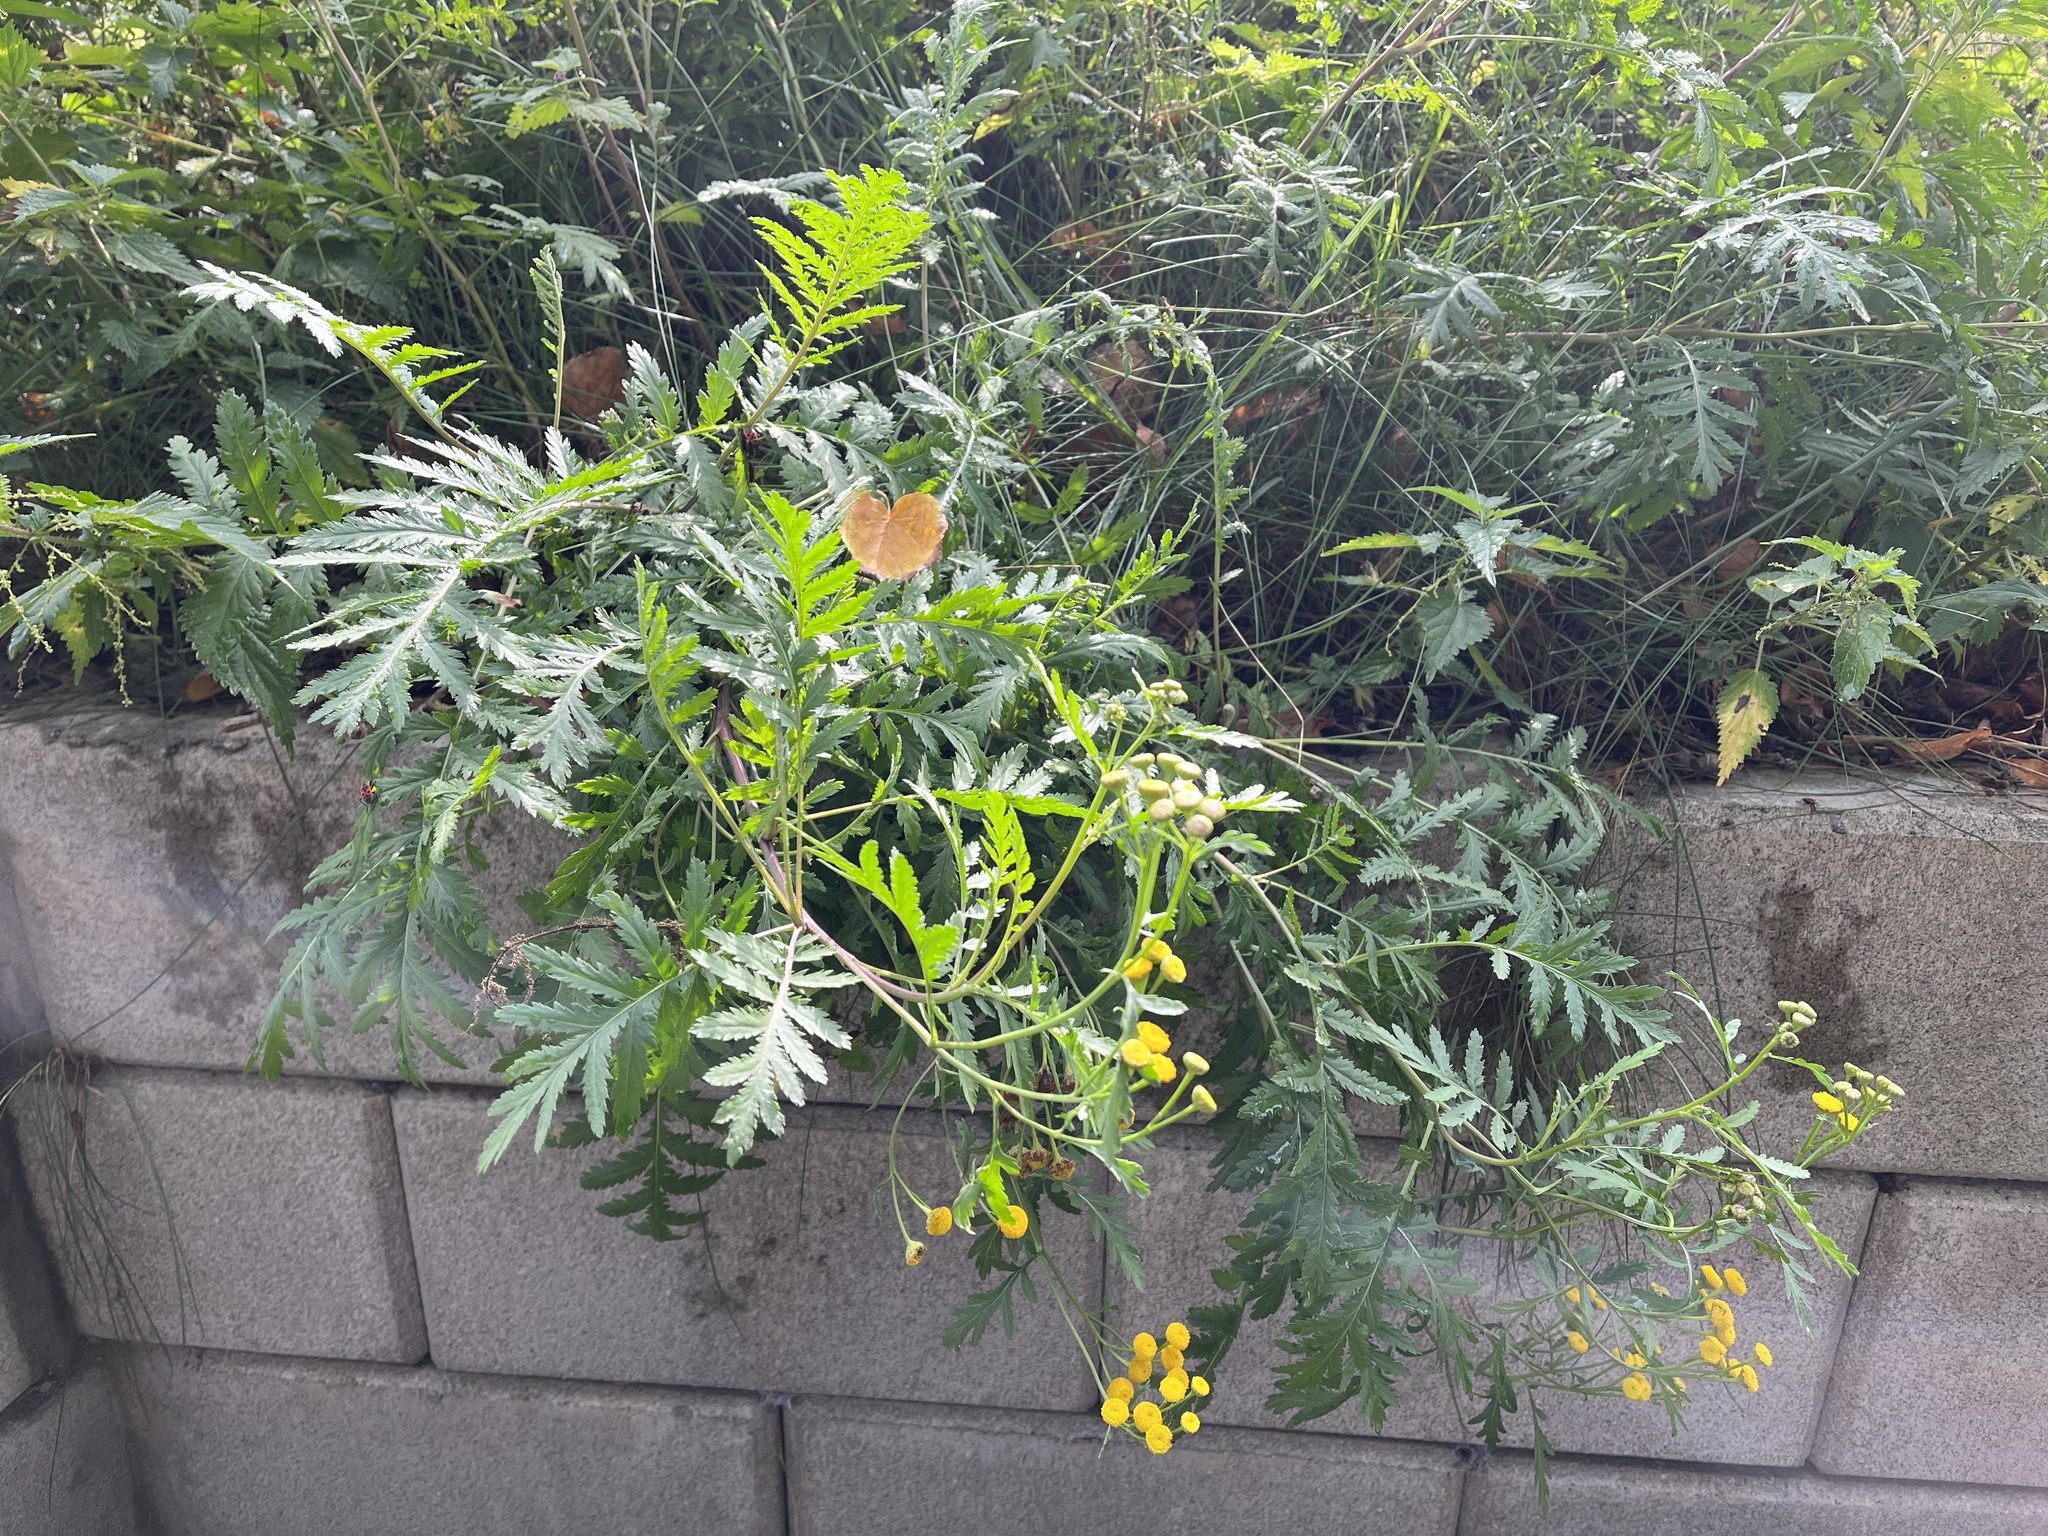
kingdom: Plantae
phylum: Tracheophyta
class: Magnoliopsida
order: Asterales
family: Asteraceae
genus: Tanacetum
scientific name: Tanacetum vulgare
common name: Common tansy
